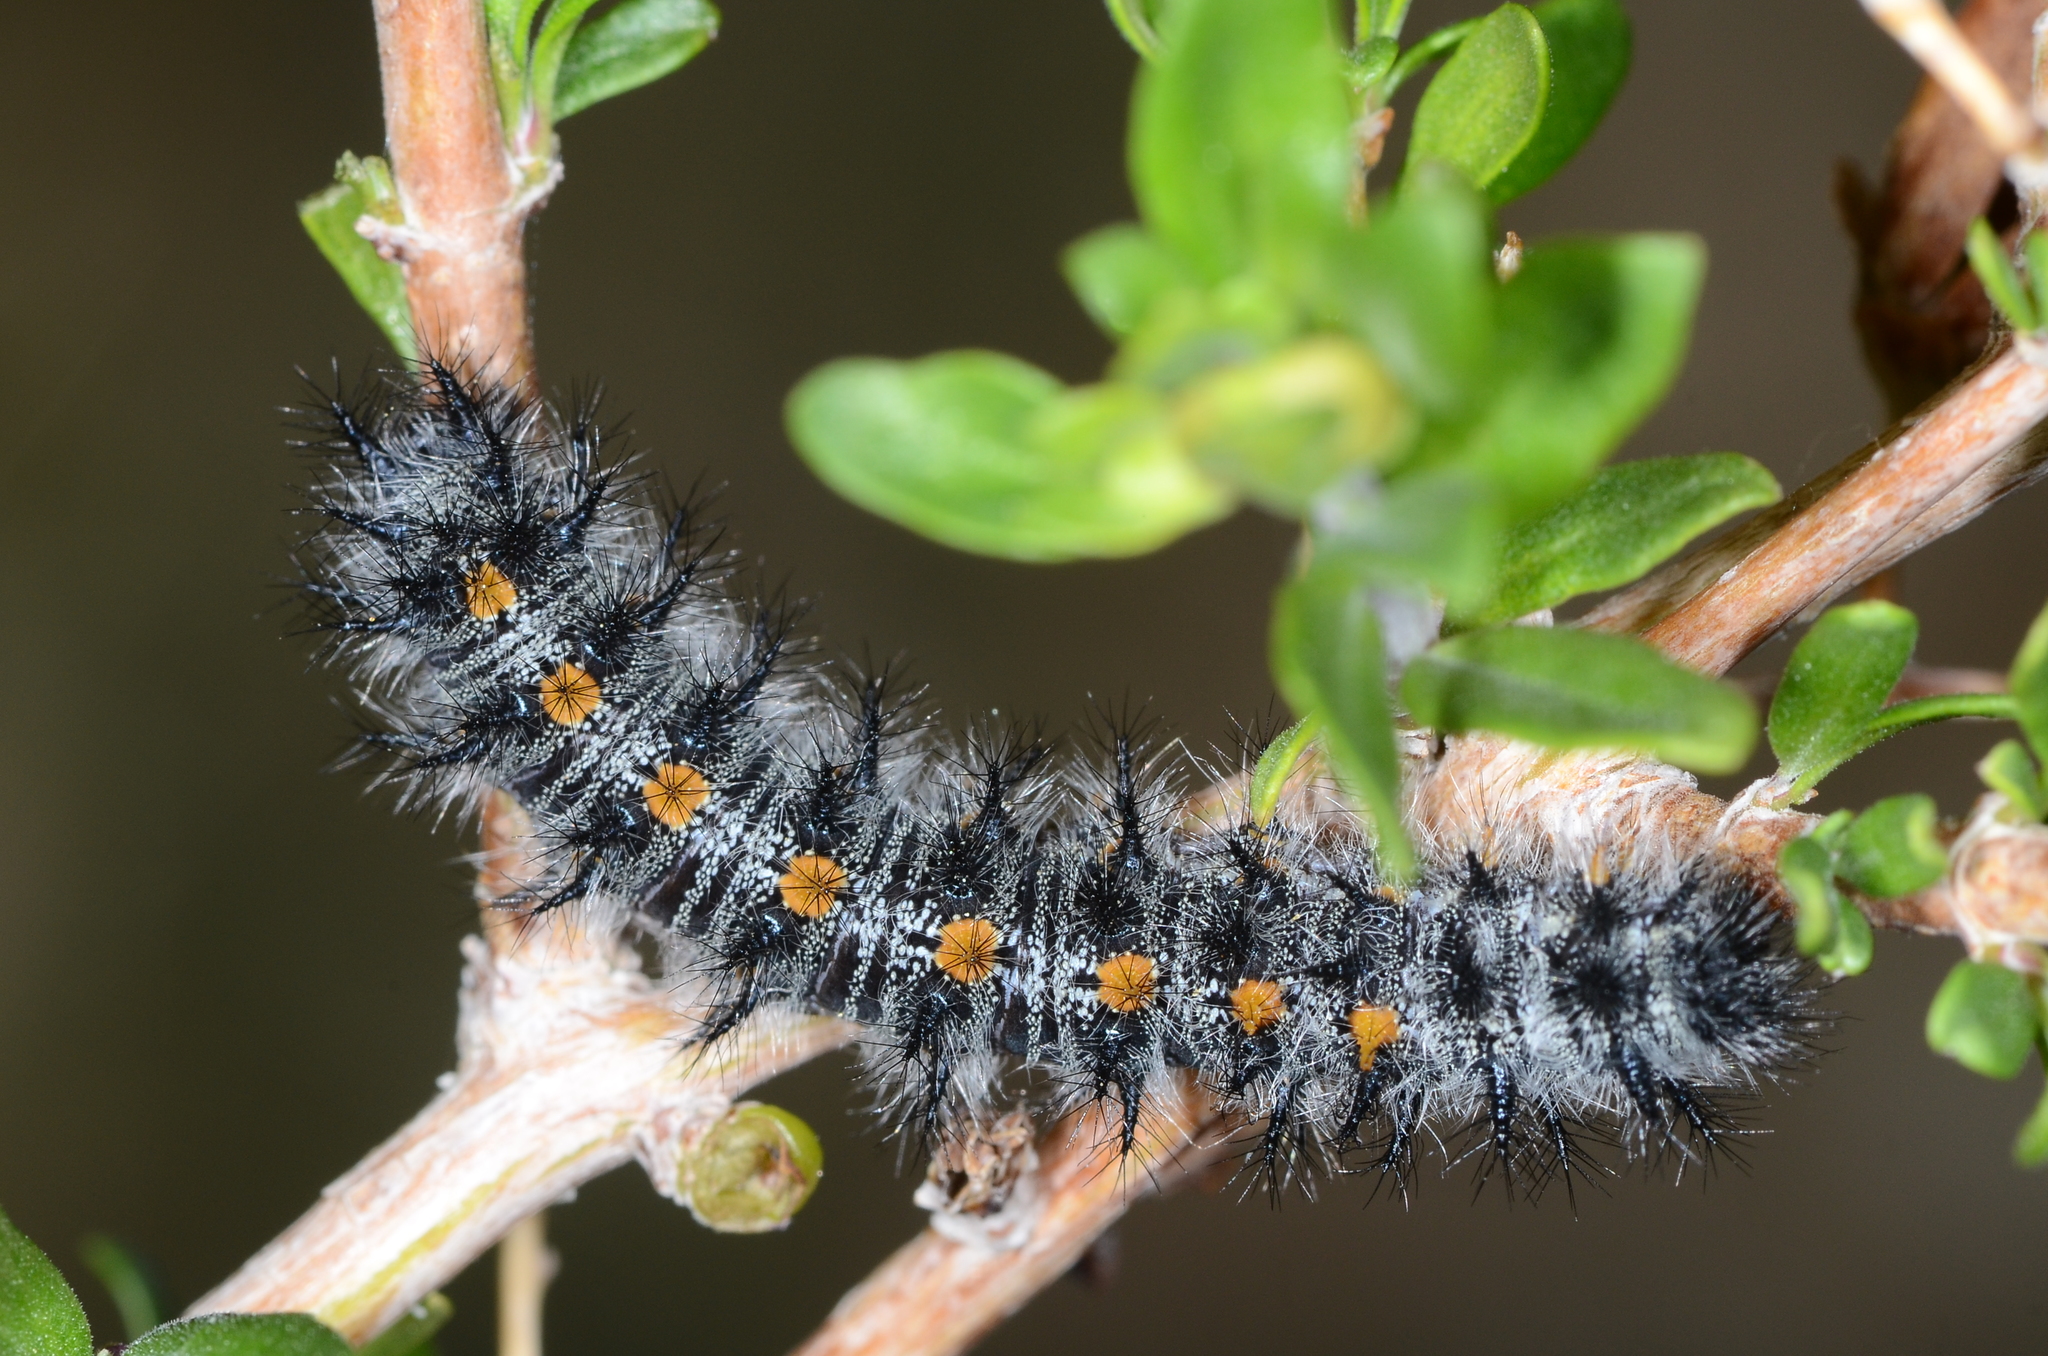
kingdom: Animalia
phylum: Arthropoda
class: Insecta
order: Lepidoptera
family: Nymphalidae
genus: Occidryas
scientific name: Occidryas chalcedona
